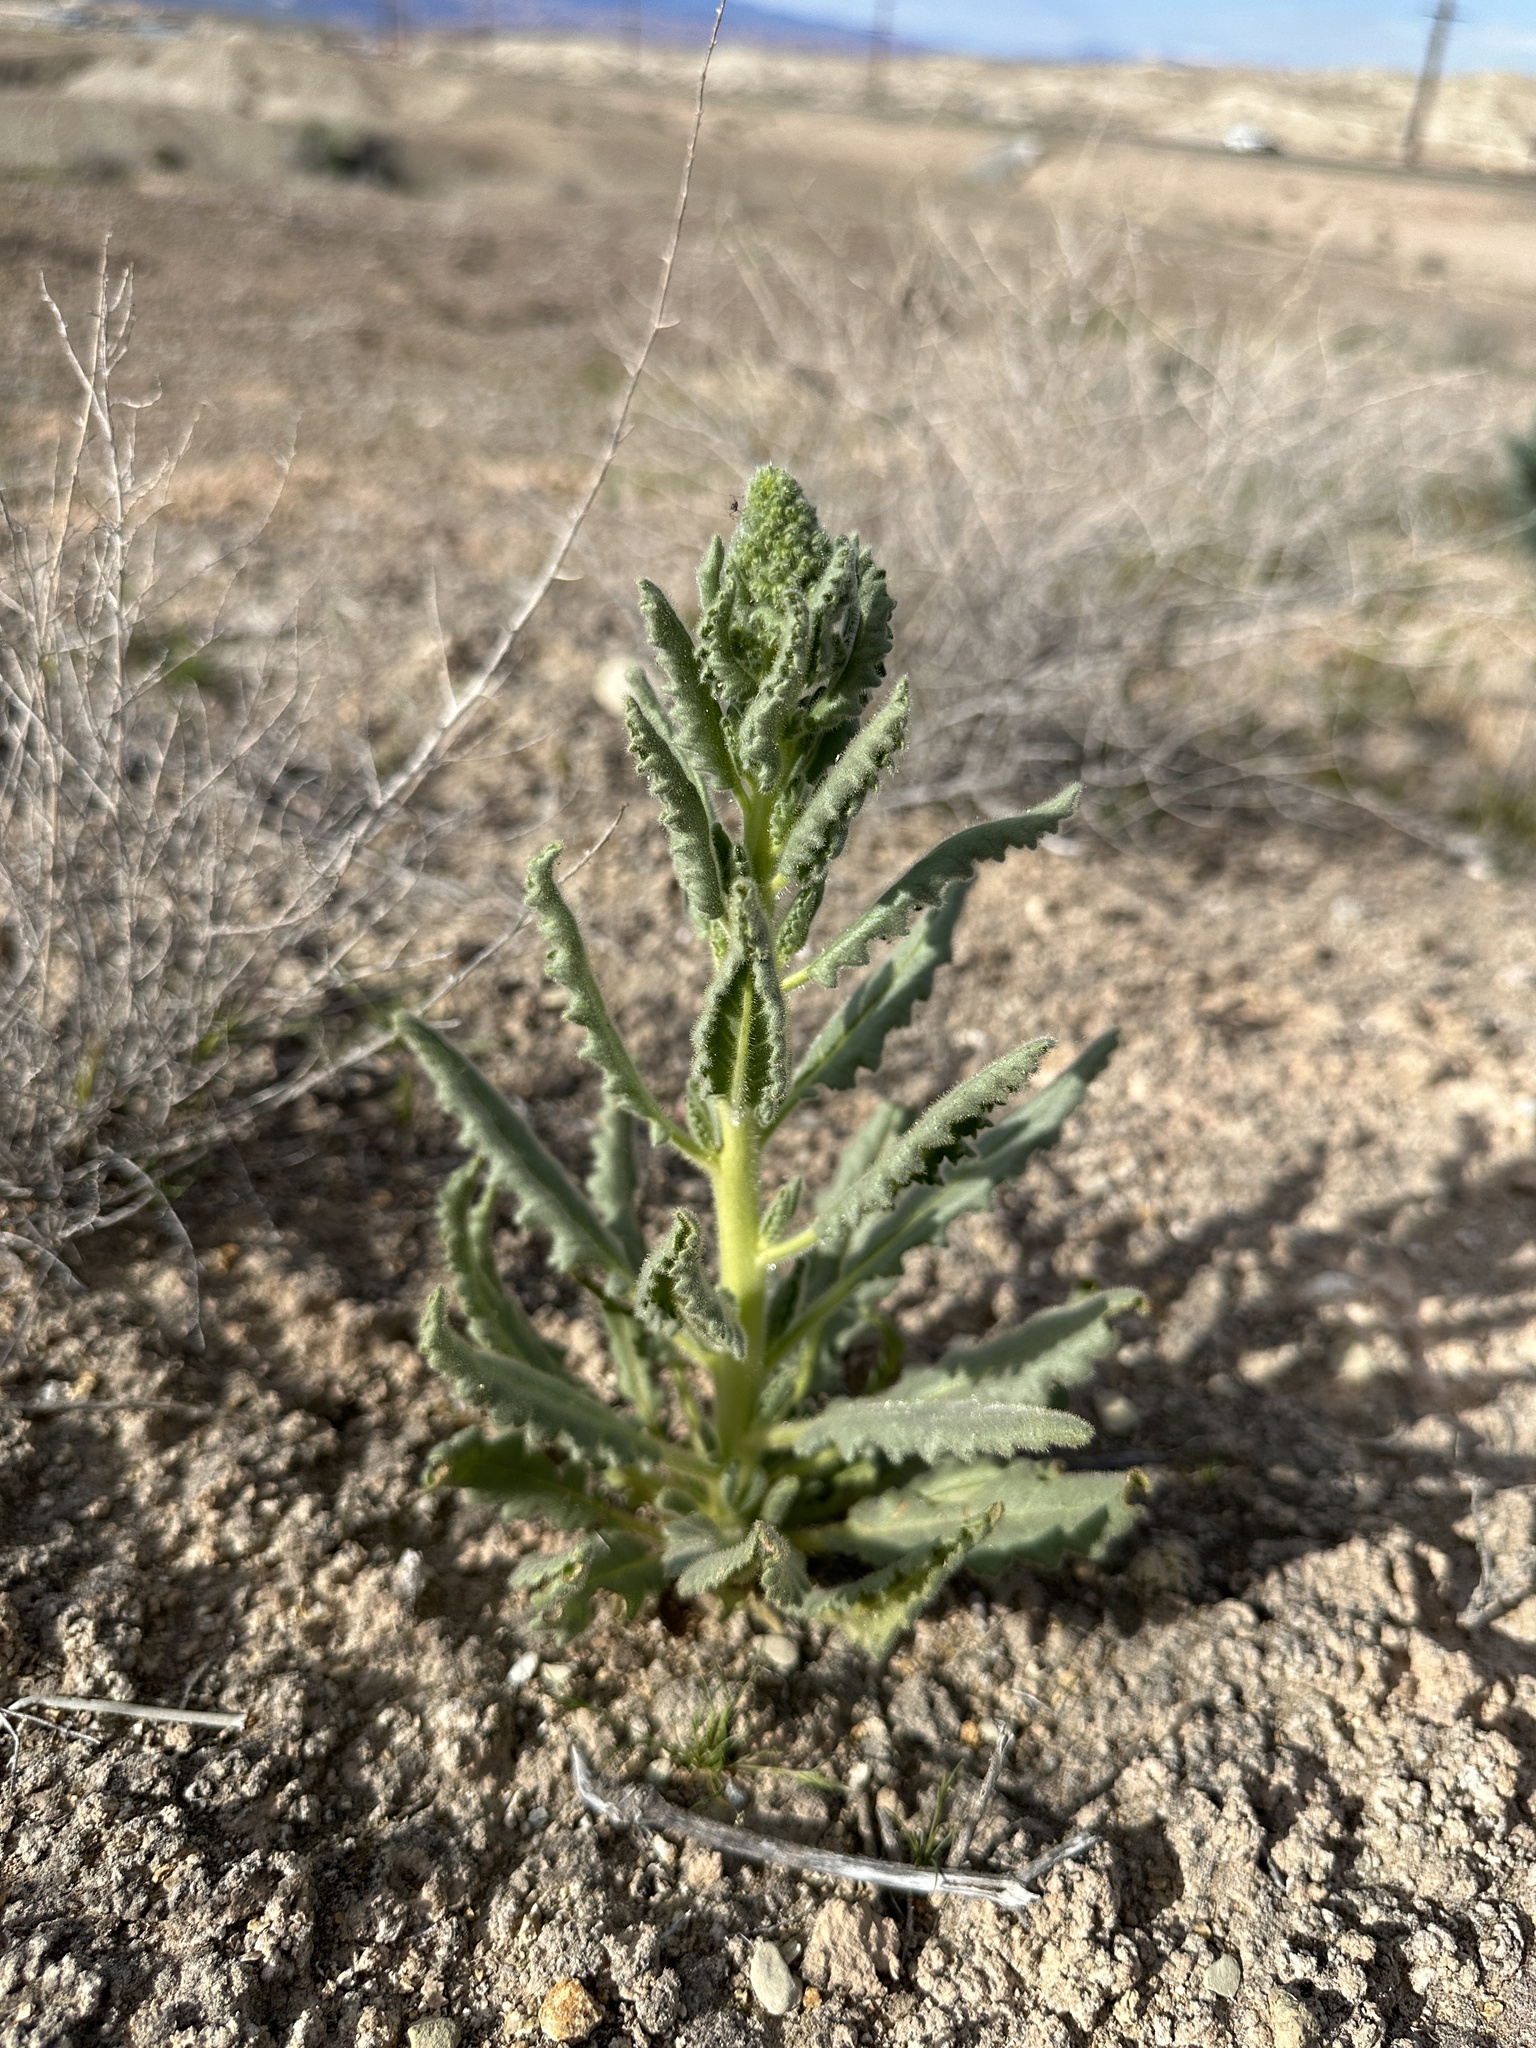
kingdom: Plantae
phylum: Tracheophyta
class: Magnoliopsida
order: Boraginales
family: Hydrophyllaceae
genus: Phacelia
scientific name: Phacelia palmeri
